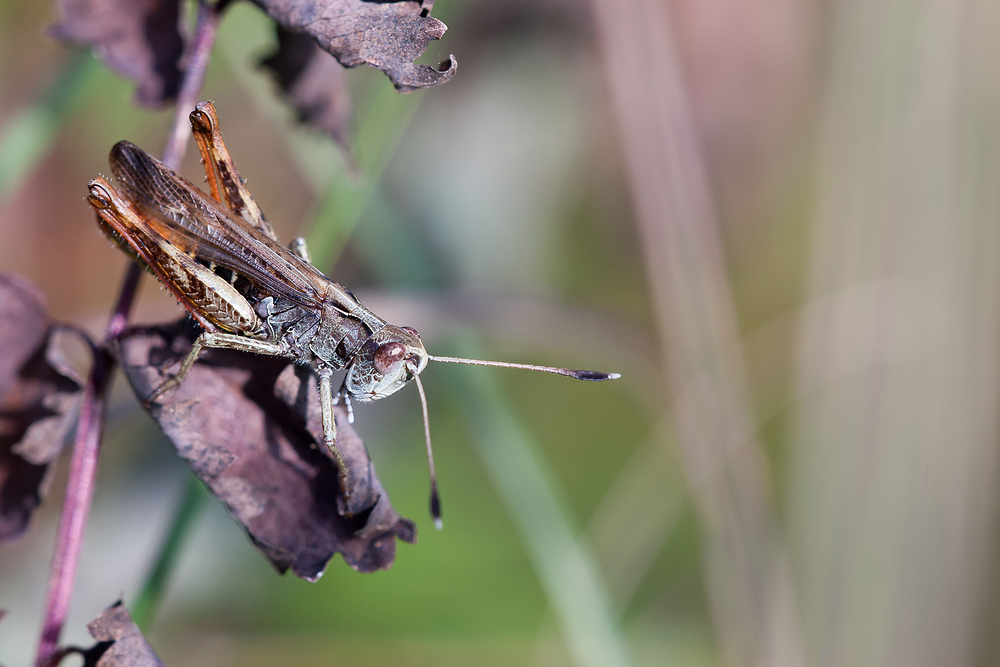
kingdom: Animalia
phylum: Arthropoda
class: Insecta
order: Orthoptera
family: Acrididae
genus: Gomphocerippus
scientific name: Gomphocerippus rufus
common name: Rufous grasshopper
